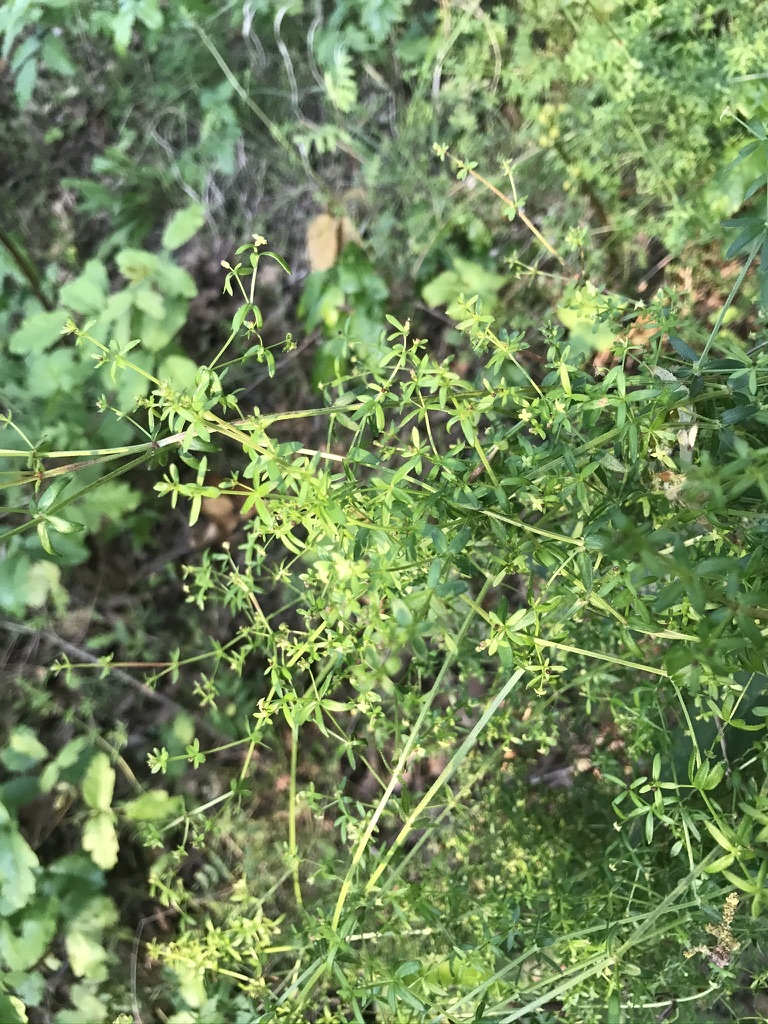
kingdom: Plantae
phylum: Tracheophyta
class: Magnoliopsida
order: Gentianales
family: Rubiaceae
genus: Galium
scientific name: Galium porrigens
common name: Climbing bedstraw
